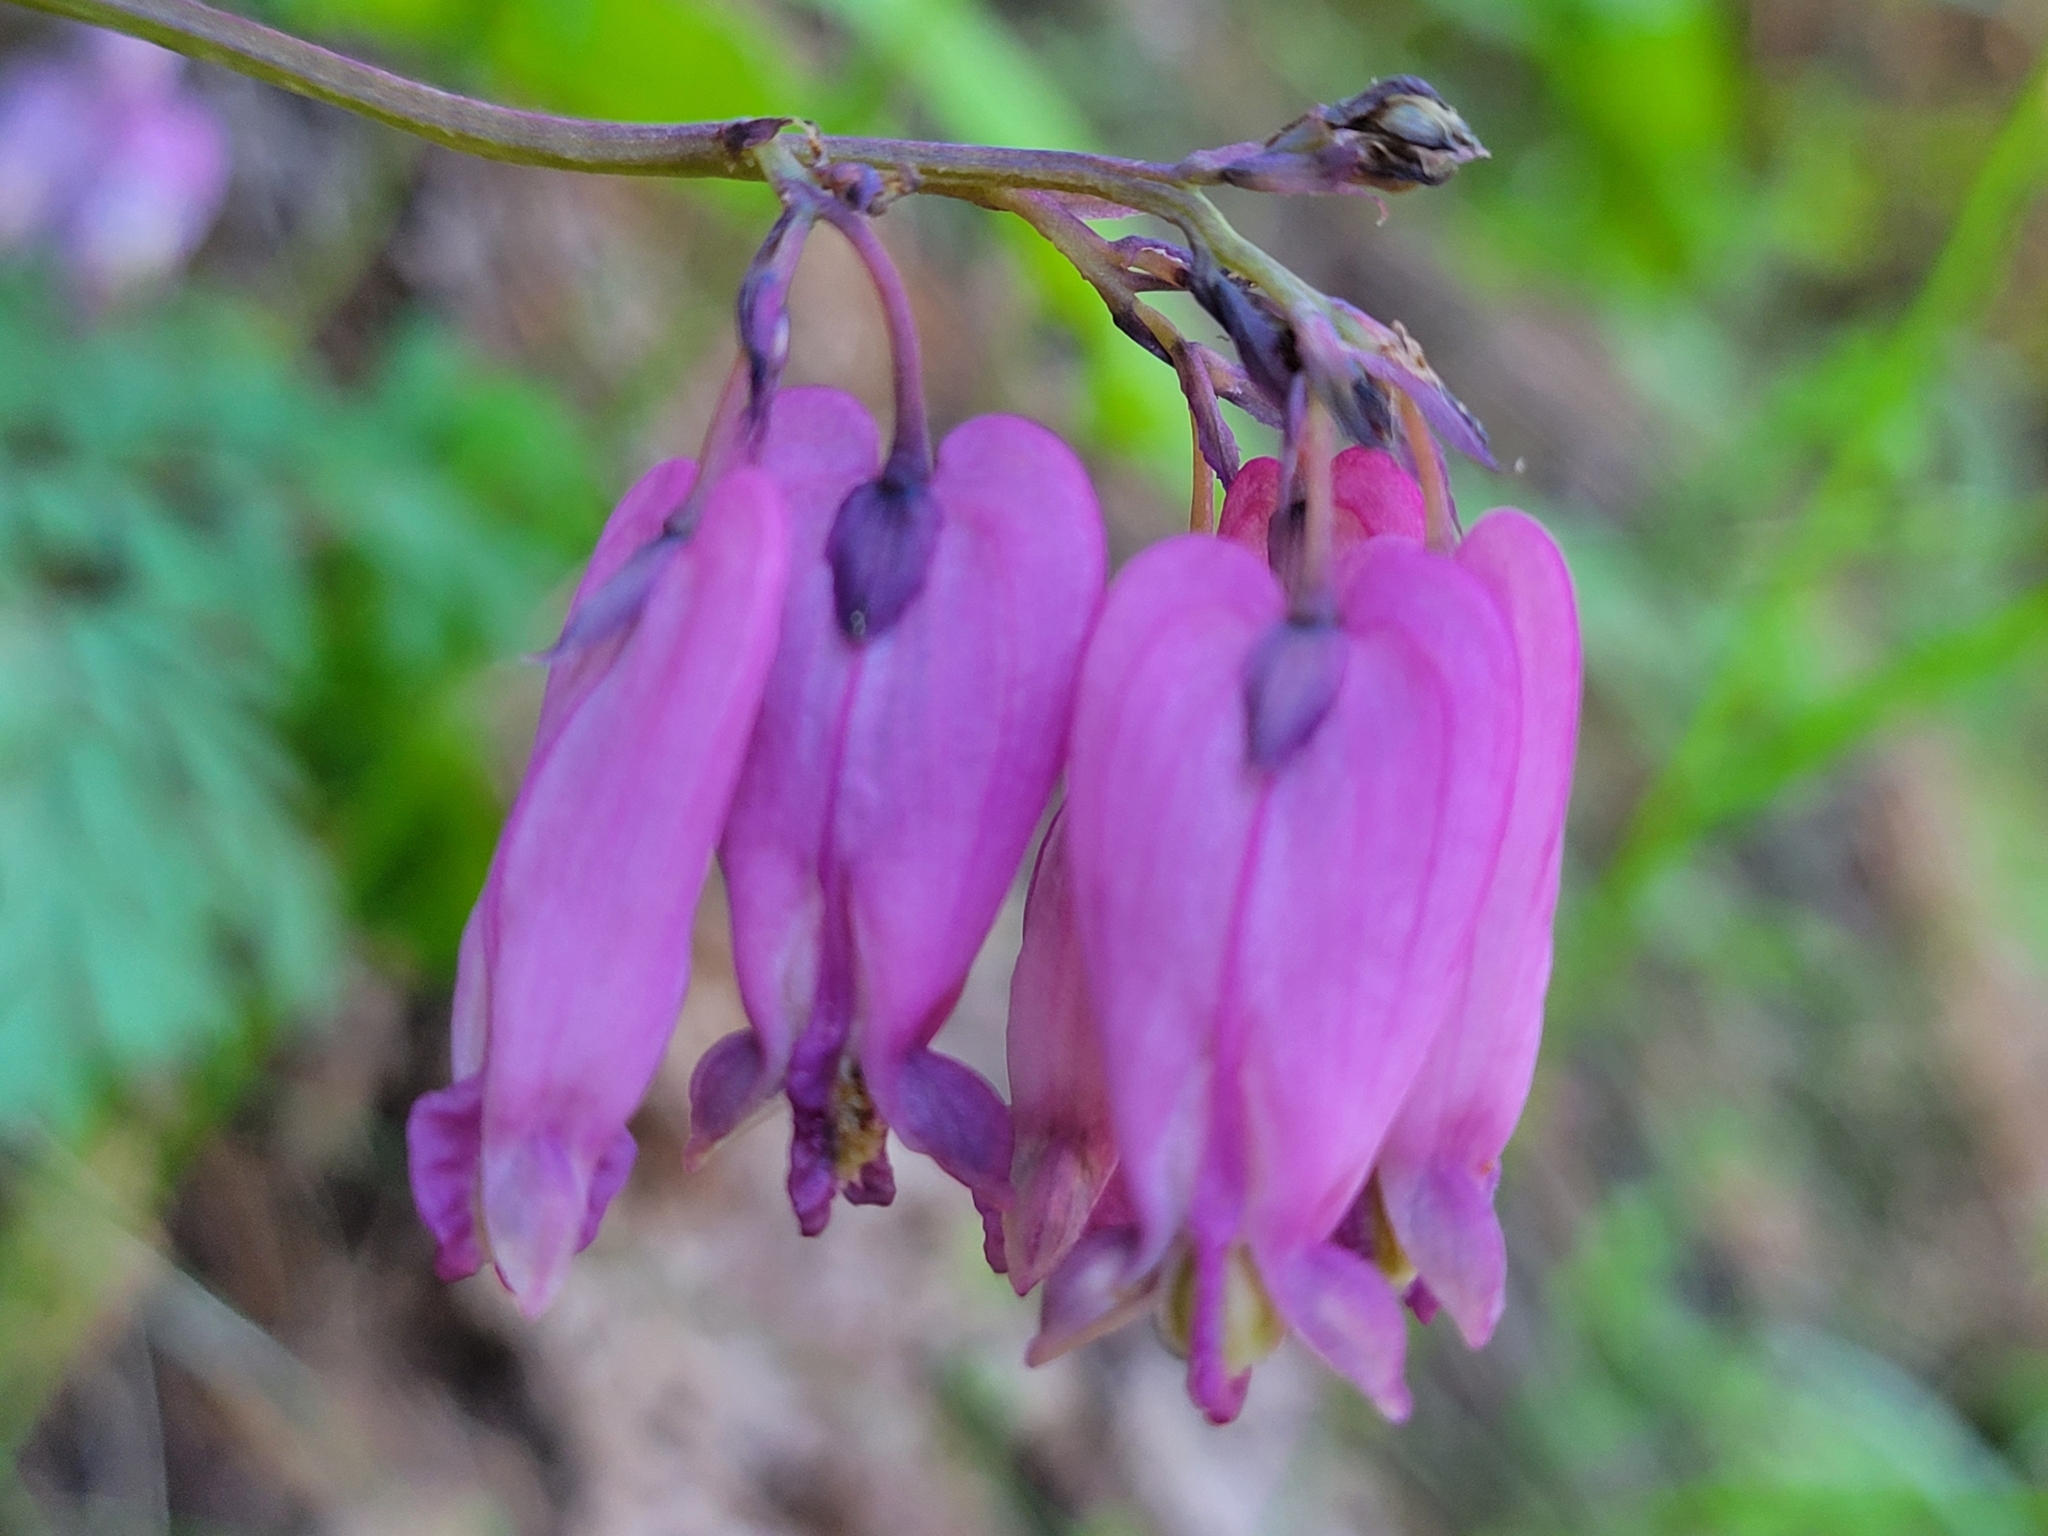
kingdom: Plantae
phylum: Tracheophyta
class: Magnoliopsida
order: Ranunculales
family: Papaveraceae
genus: Dicentra
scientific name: Dicentra formosa
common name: Bleeding-heart
